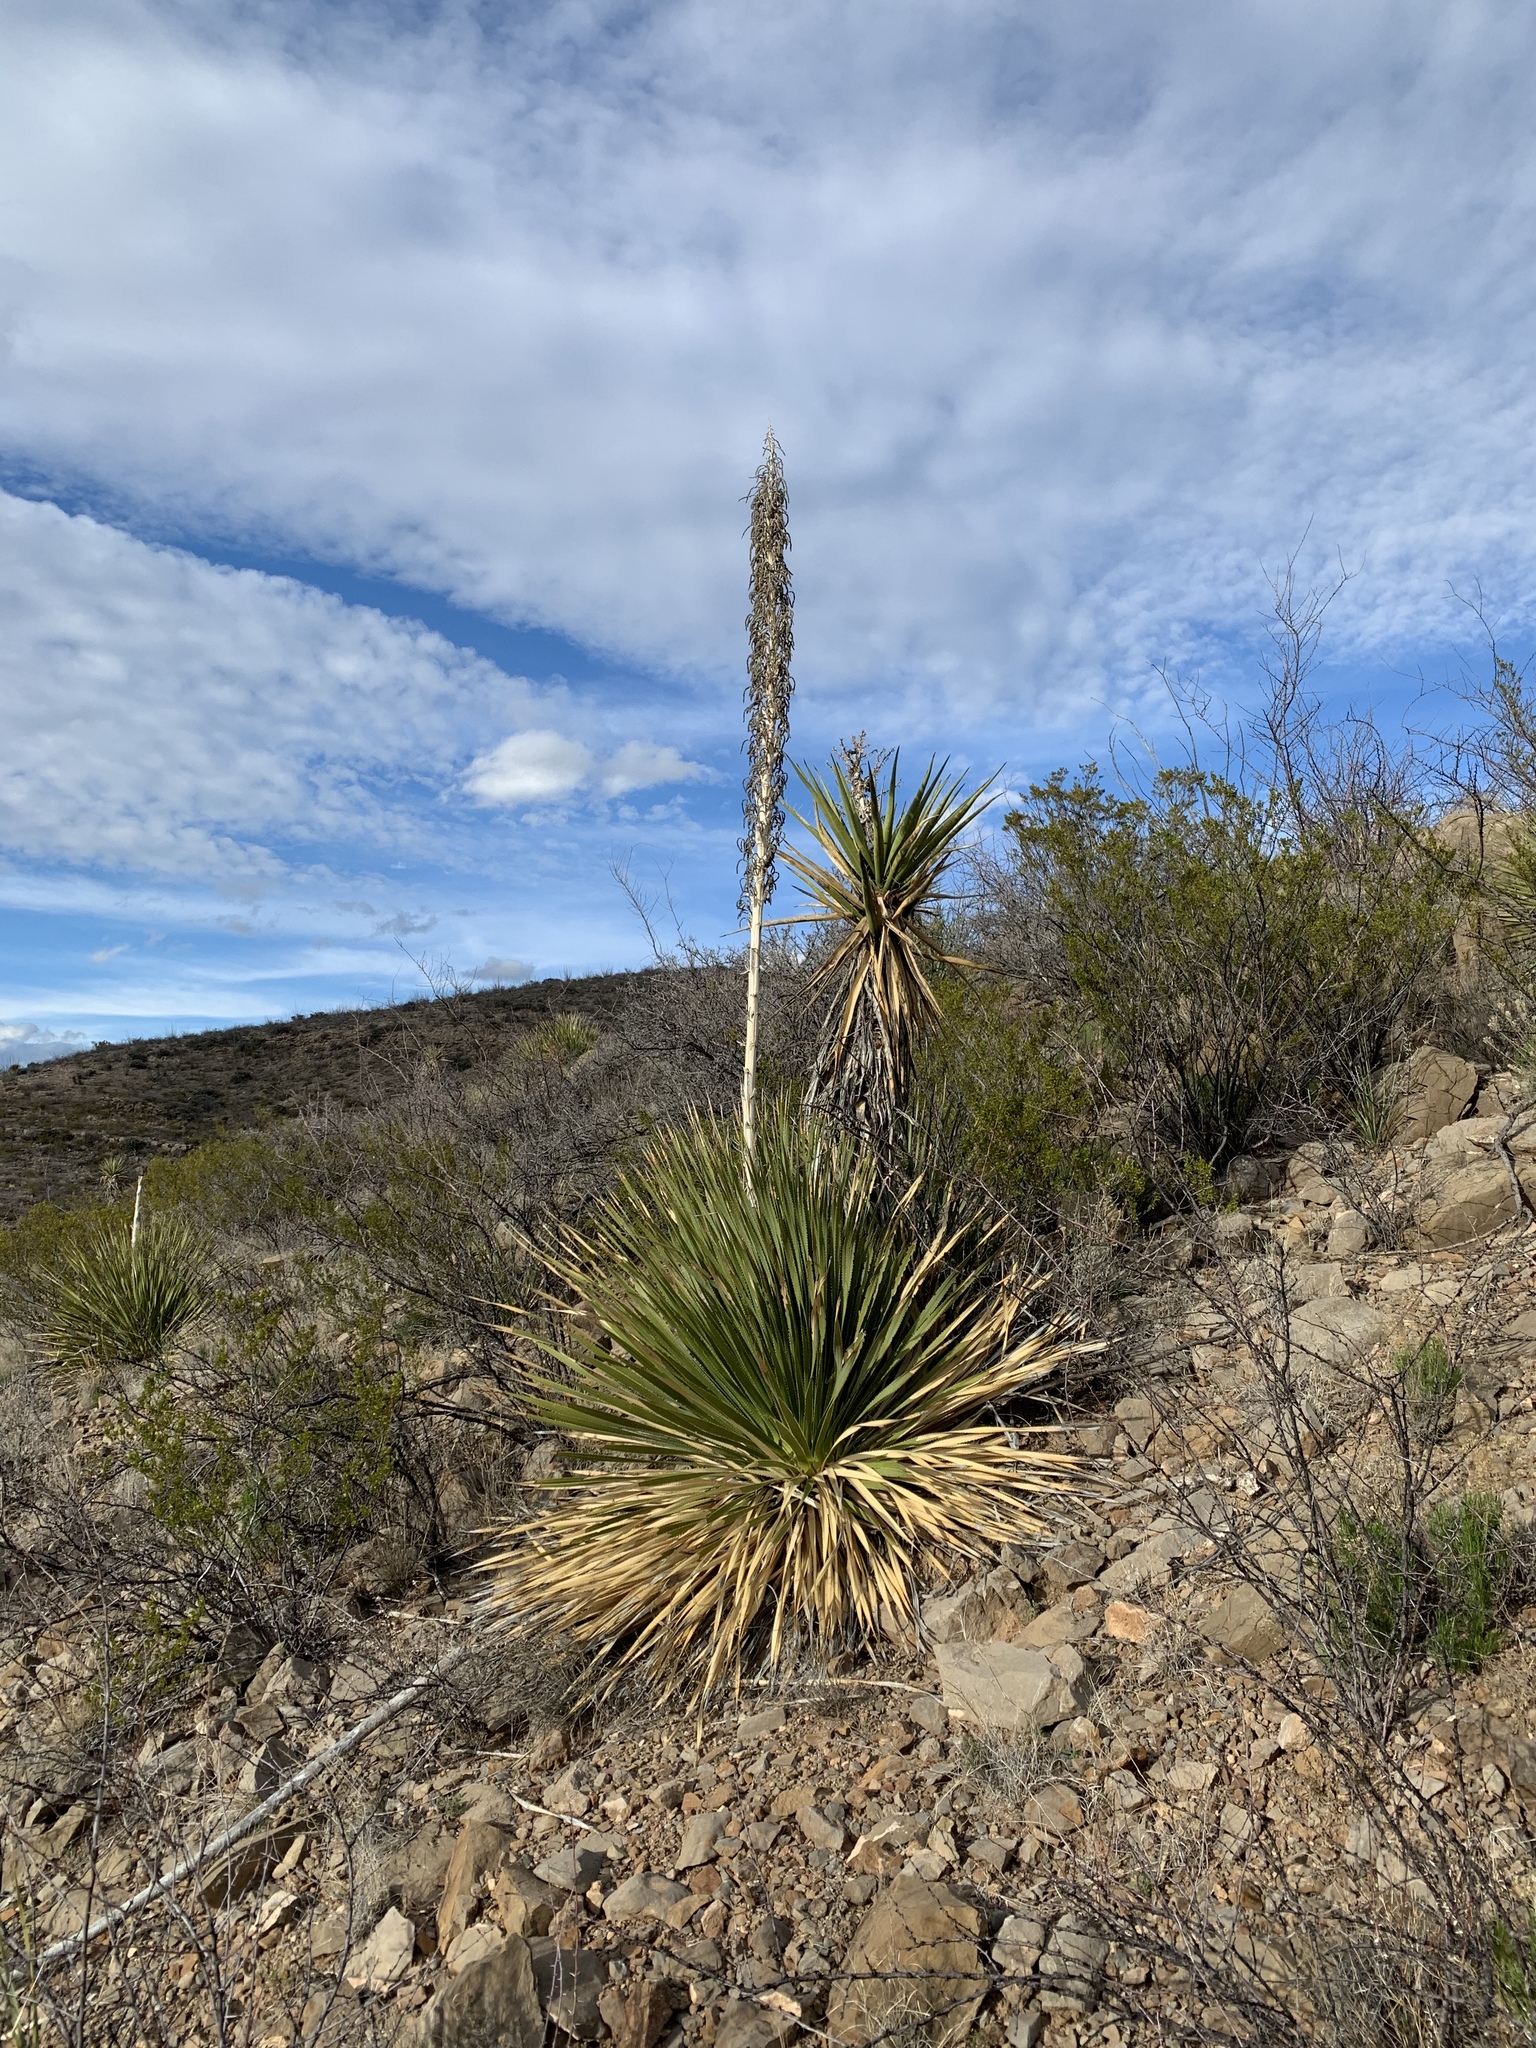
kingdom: Plantae
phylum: Tracheophyta
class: Liliopsida
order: Asparagales
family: Asparagaceae
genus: Dasylirion
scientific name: Dasylirion wheeleri
